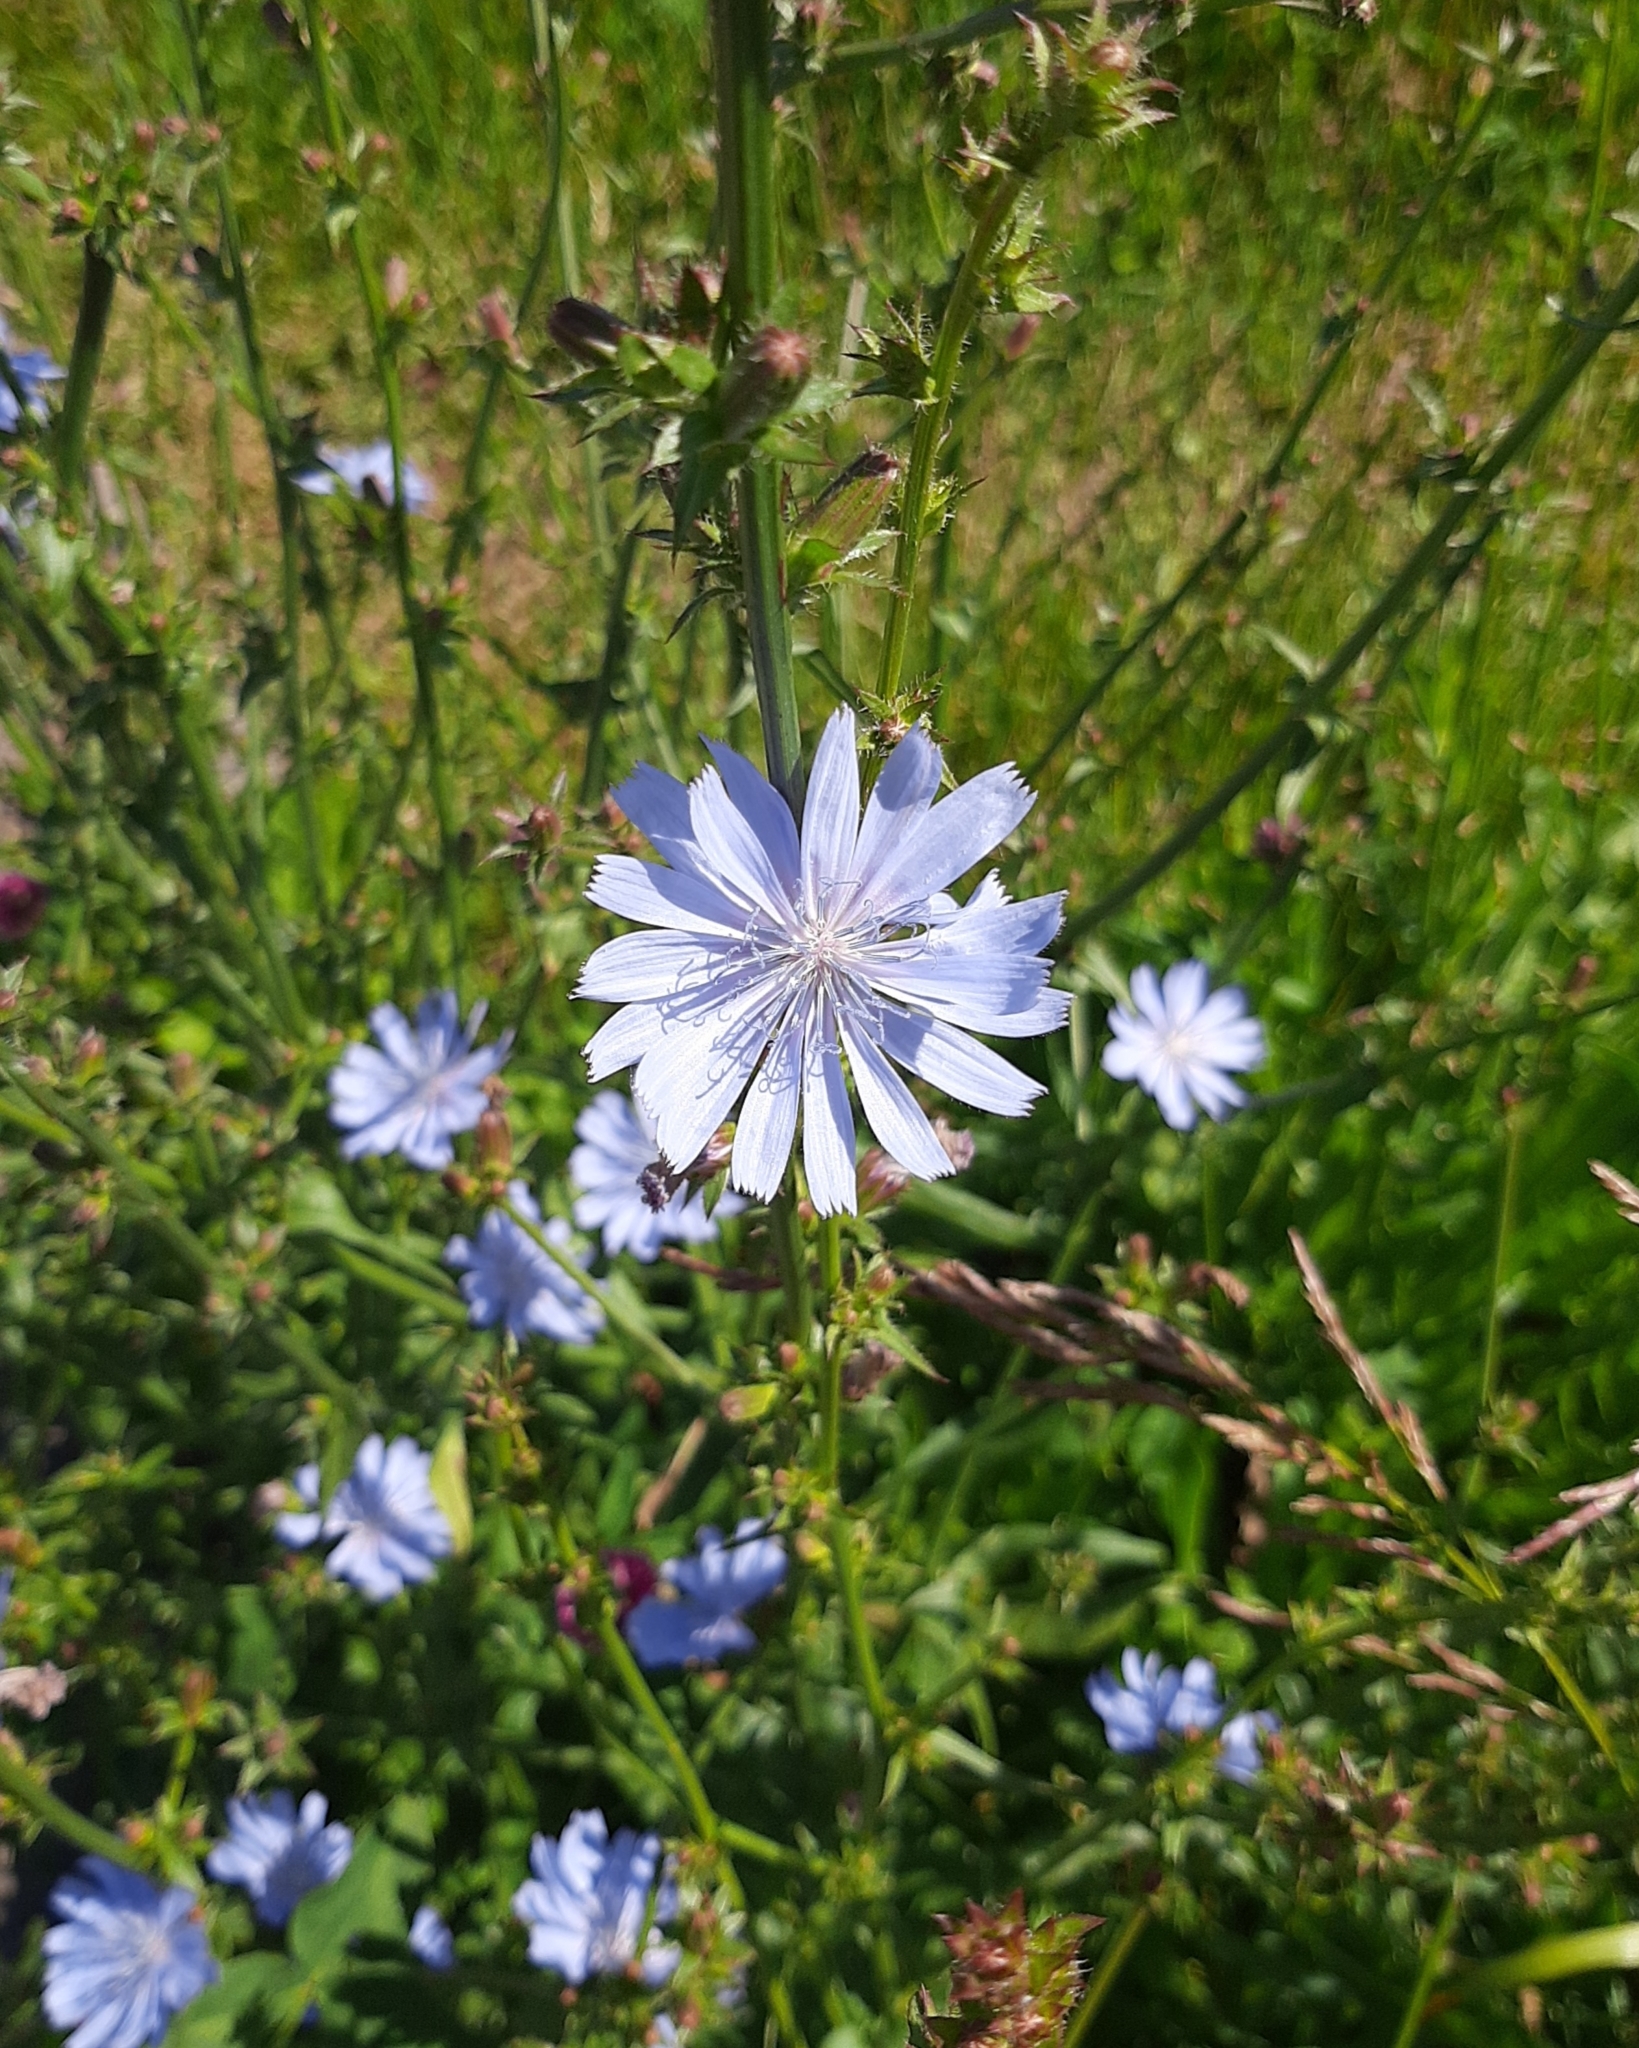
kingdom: Plantae
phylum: Tracheophyta
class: Magnoliopsida
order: Asterales
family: Asteraceae
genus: Cichorium
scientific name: Cichorium intybus
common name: Chicory
